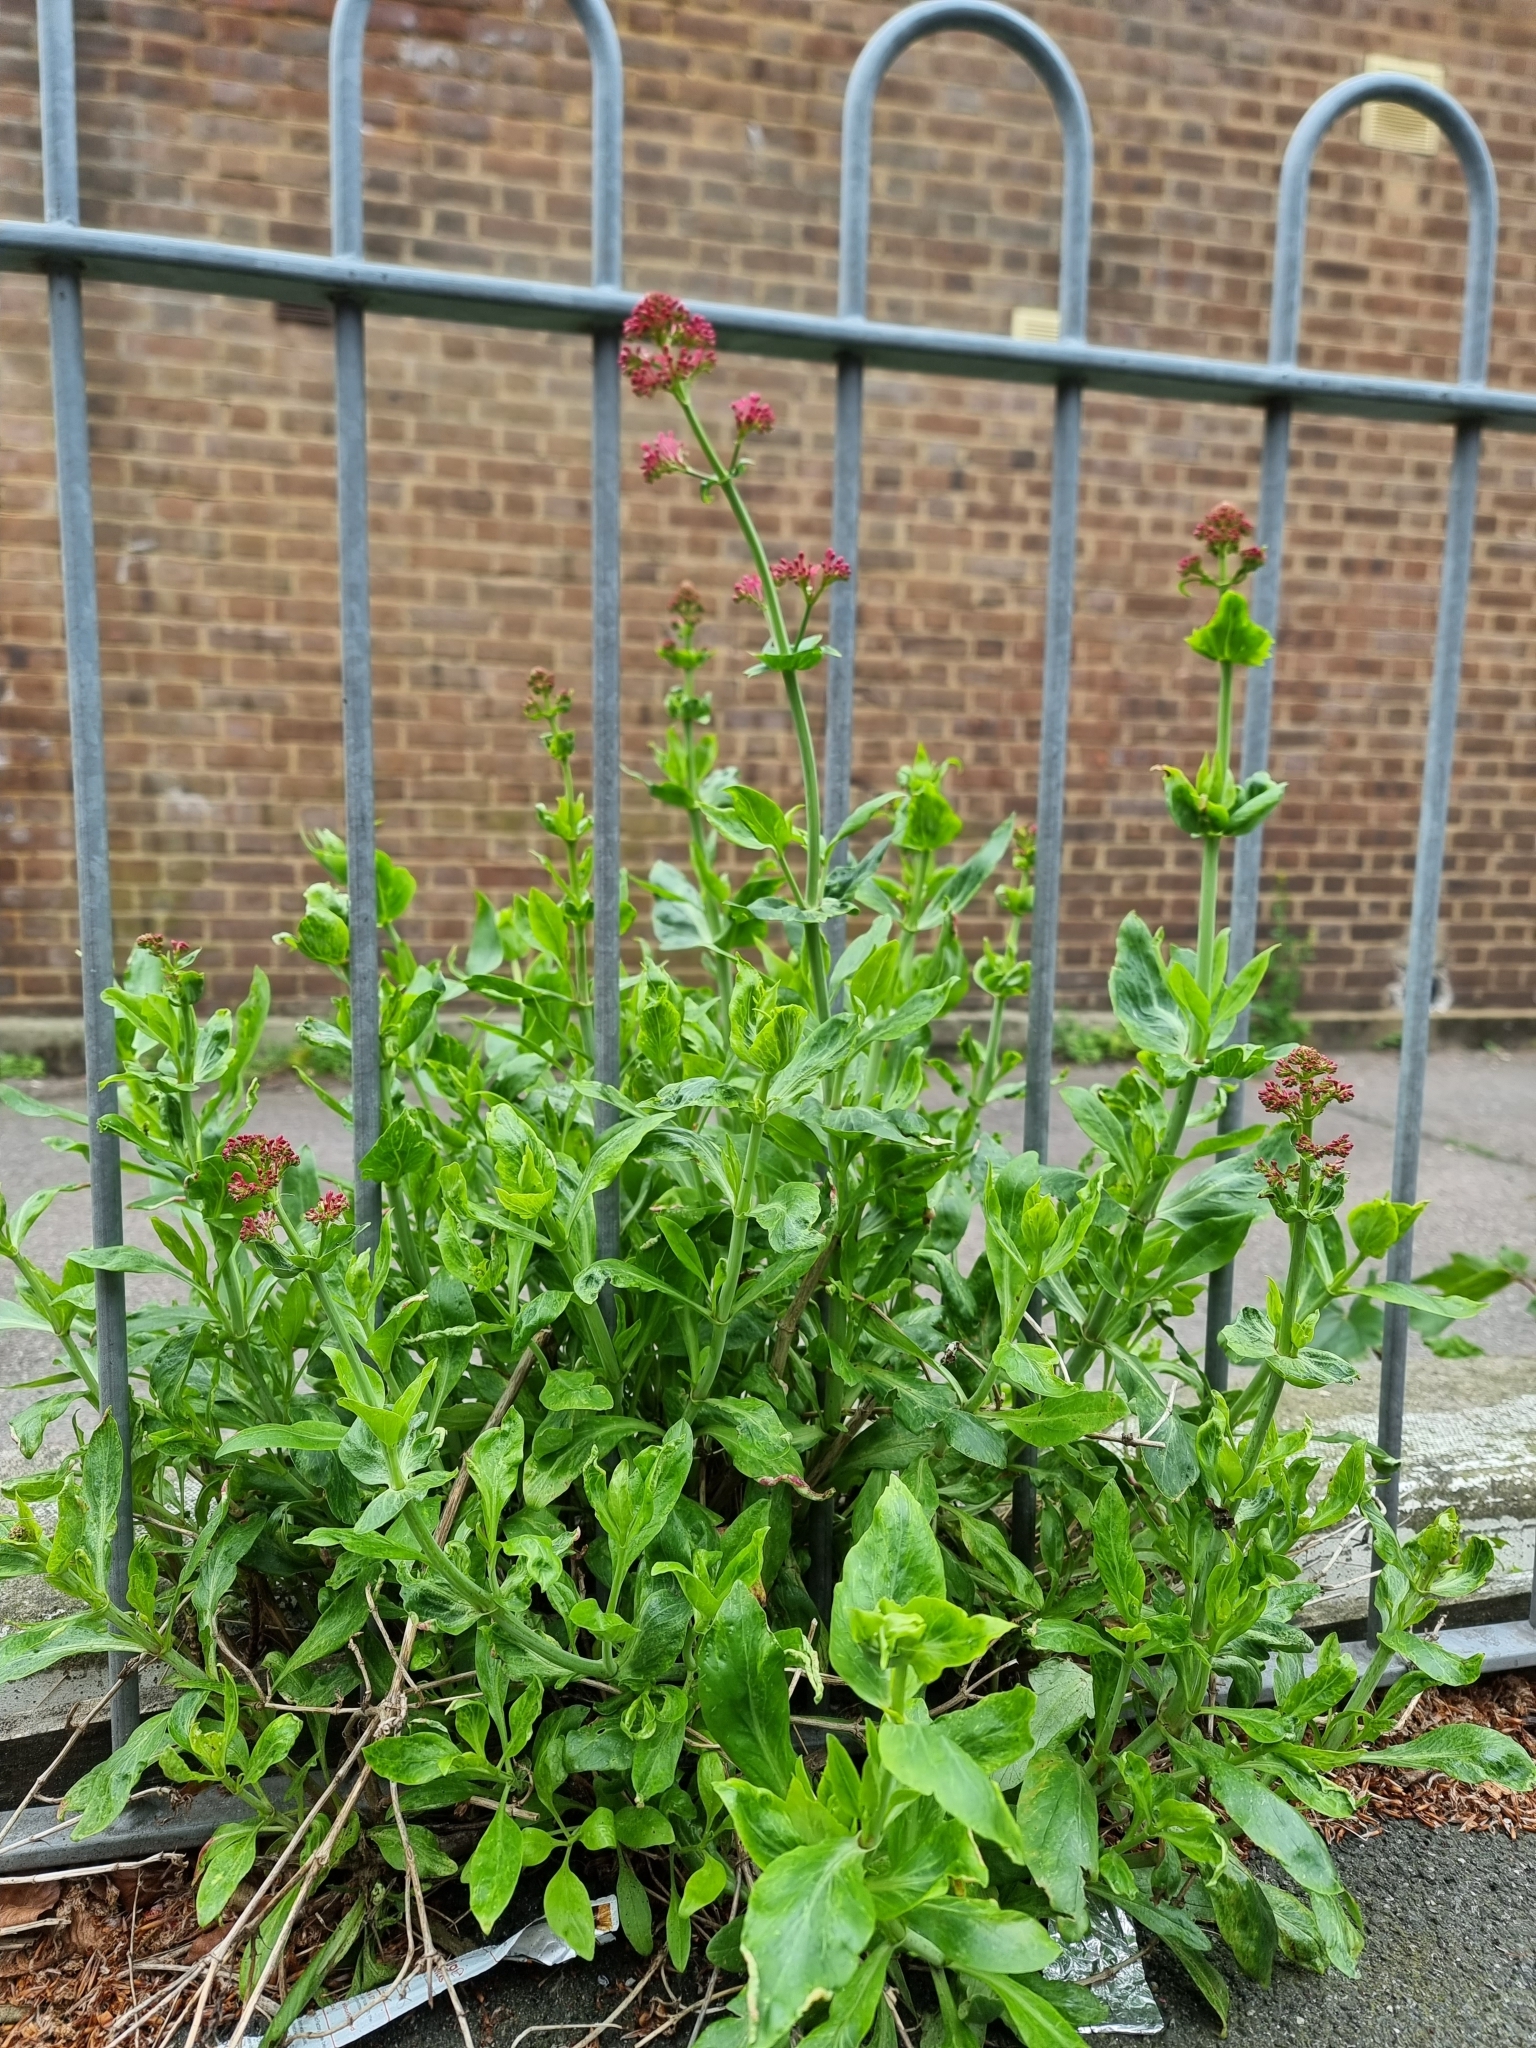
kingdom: Plantae
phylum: Tracheophyta
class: Magnoliopsida
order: Dipsacales
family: Caprifoliaceae
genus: Centranthus
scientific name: Centranthus ruber
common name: Red valerian
